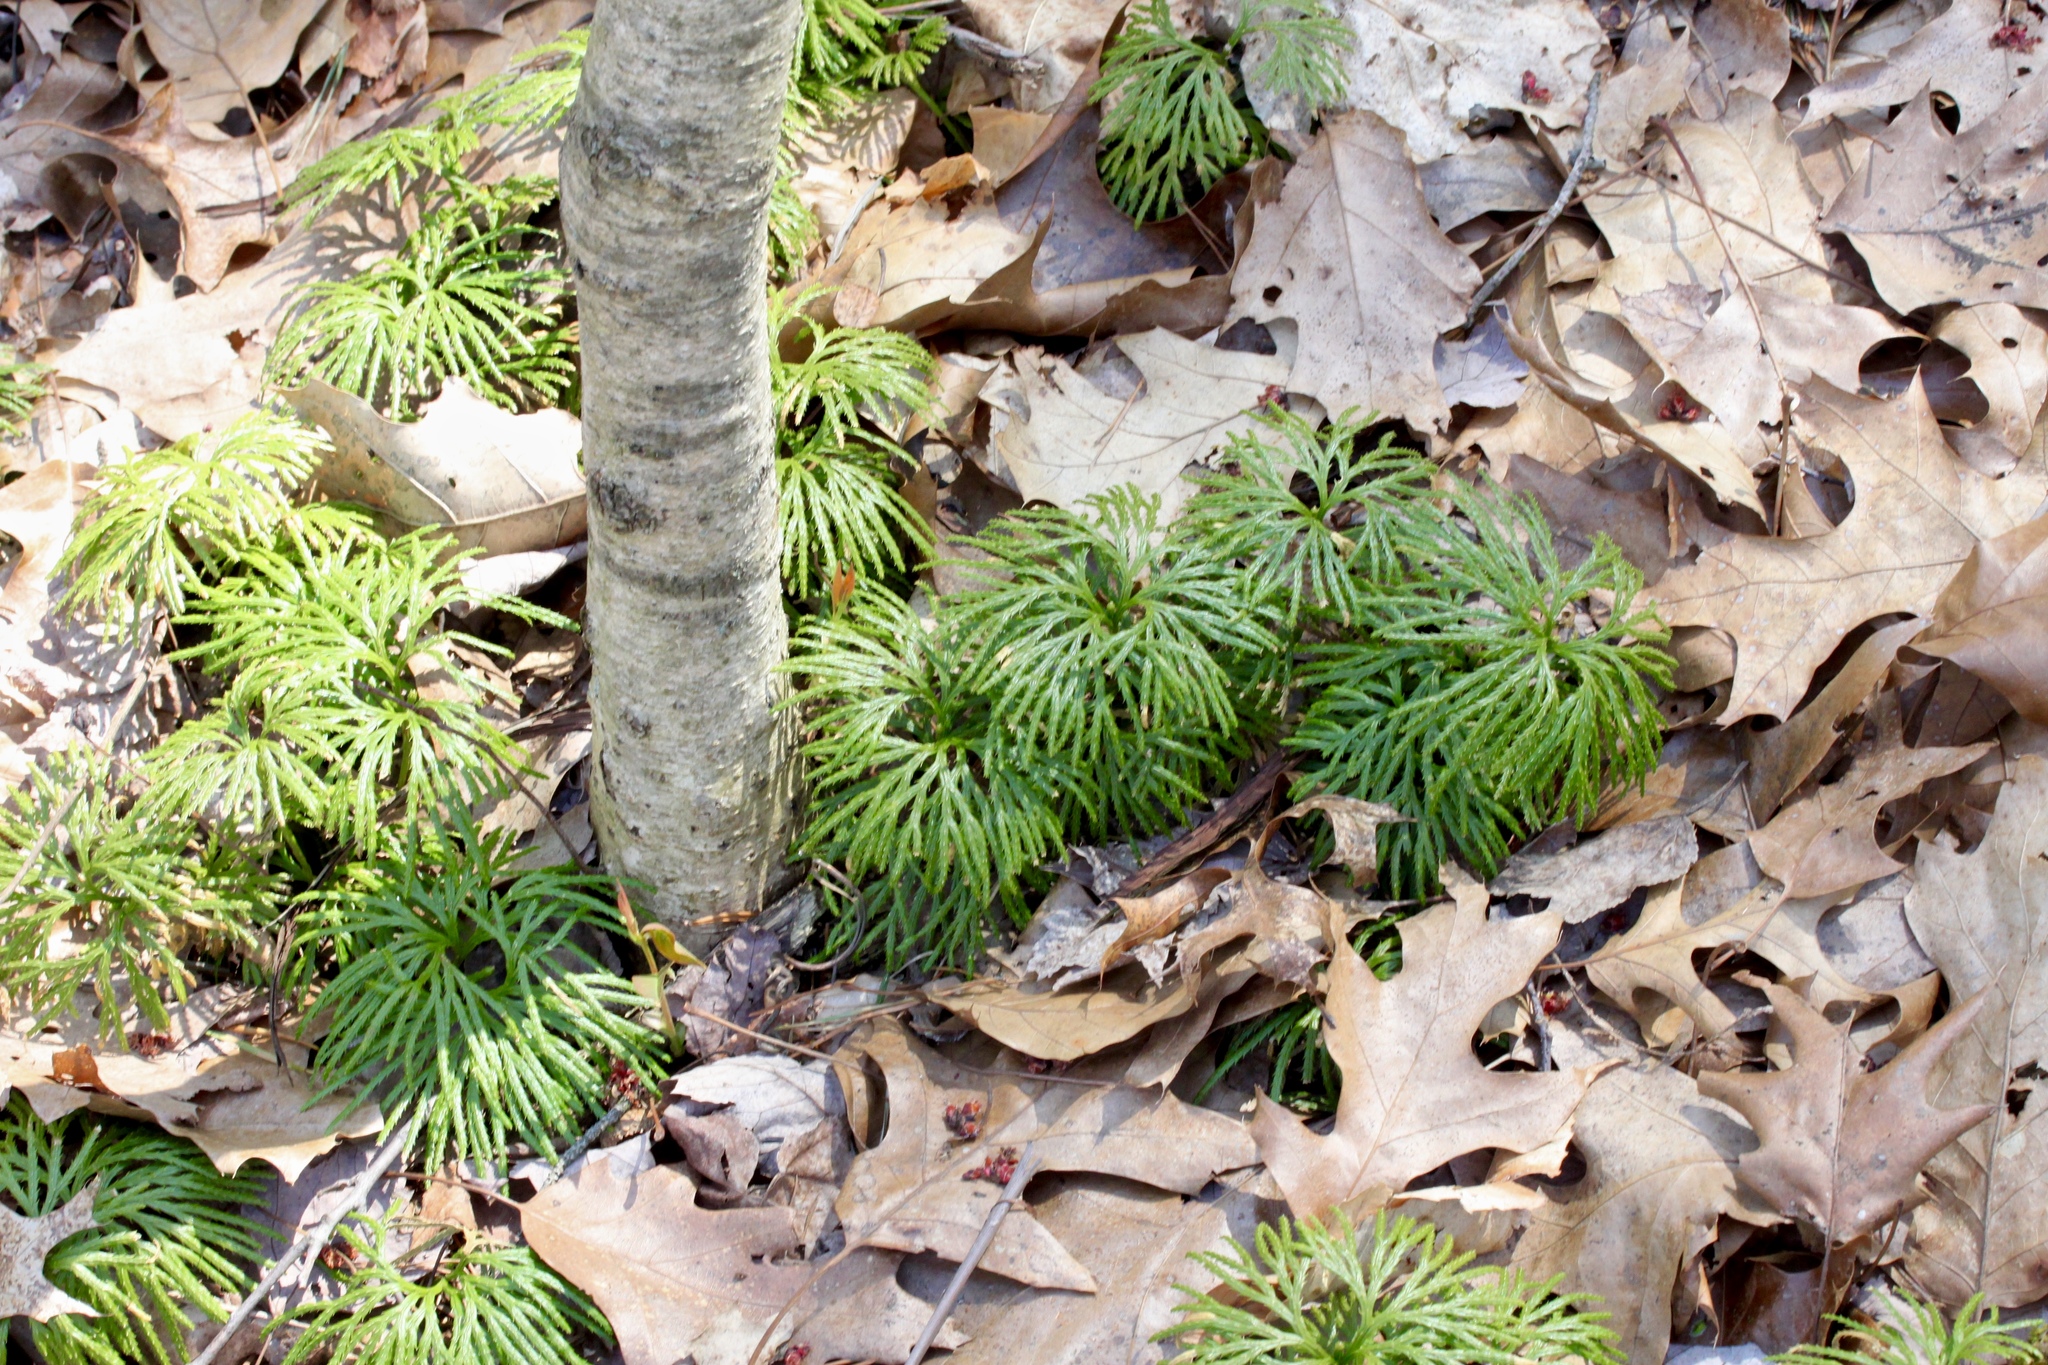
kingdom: Plantae
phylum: Tracheophyta
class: Lycopodiopsida
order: Lycopodiales
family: Lycopodiaceae
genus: Diphasiastrum
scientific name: Diphasiastrum digitatum
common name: Southern running-pine
